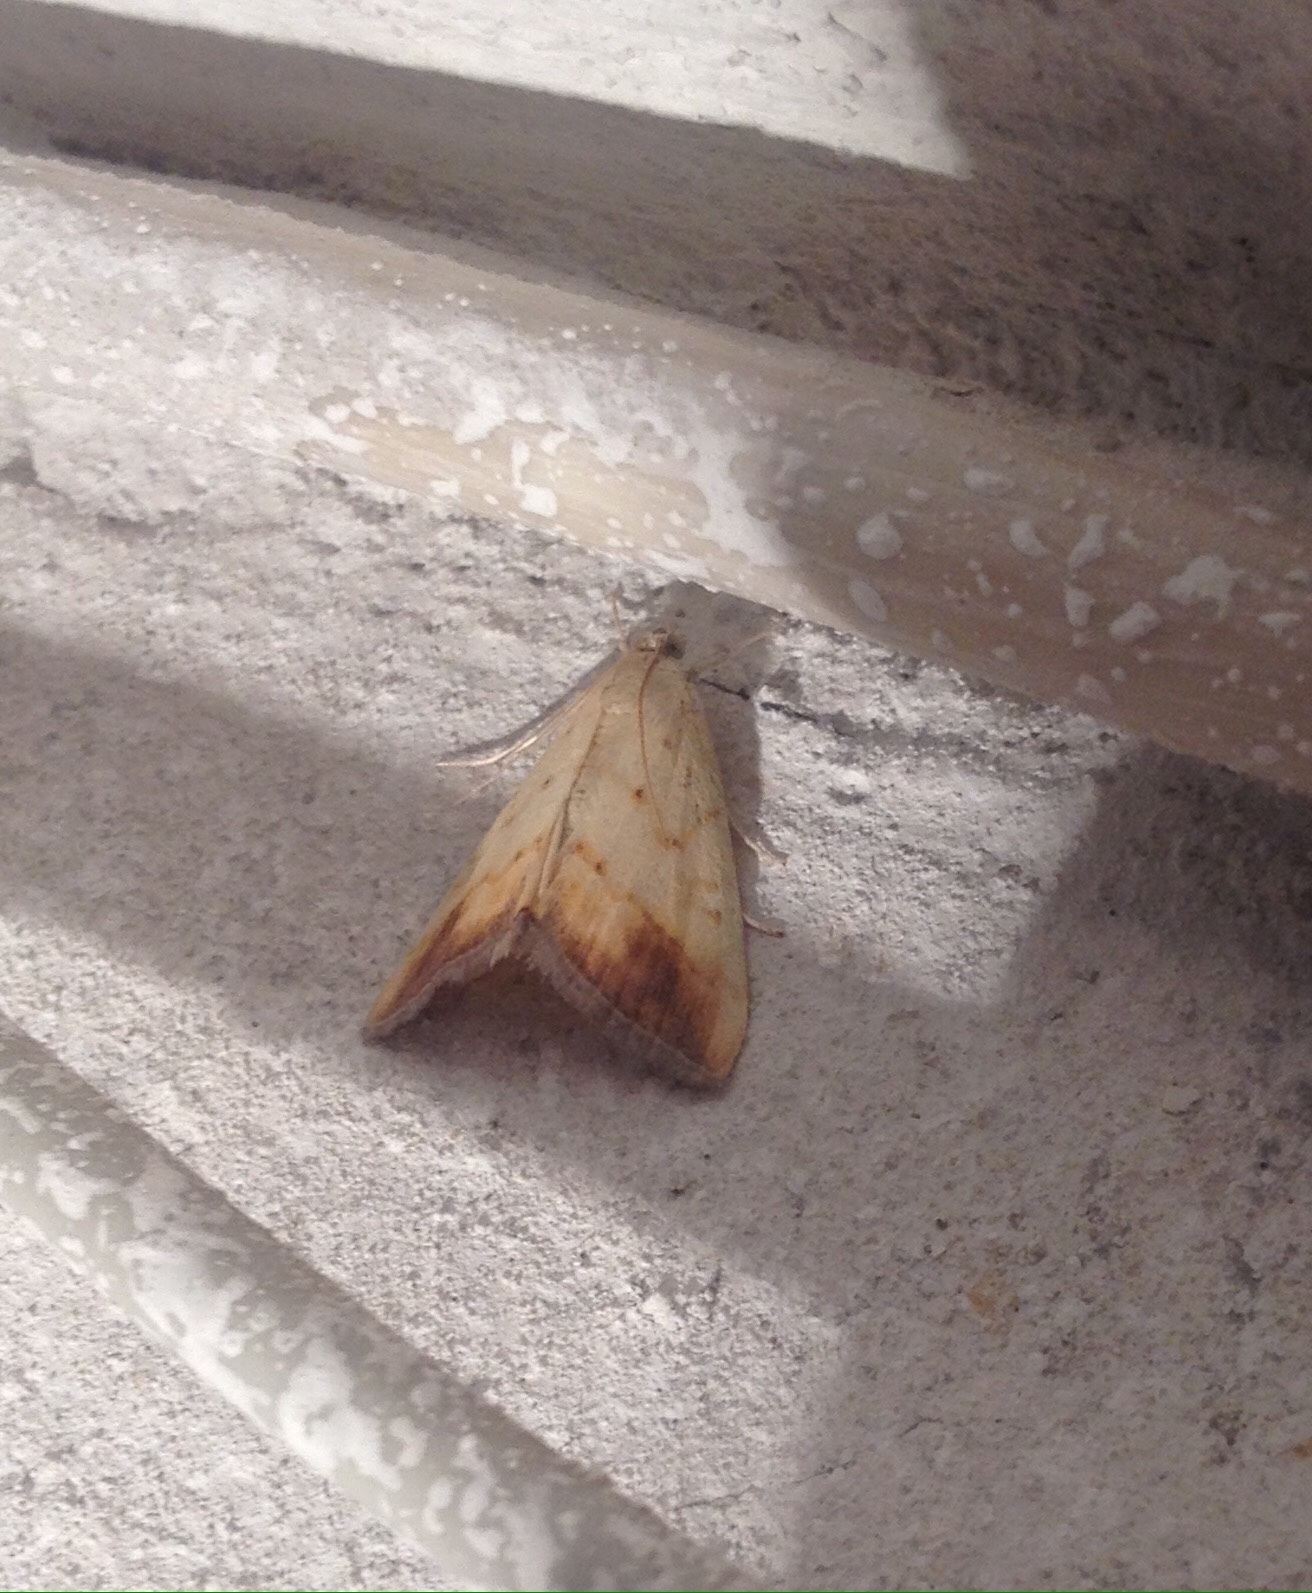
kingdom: Animalia
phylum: Arthropoda
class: Insecta
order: Lepidoptera
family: Crambidae
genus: Evergestis
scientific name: Evergestis extimalis
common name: Marbled yellow pearl
